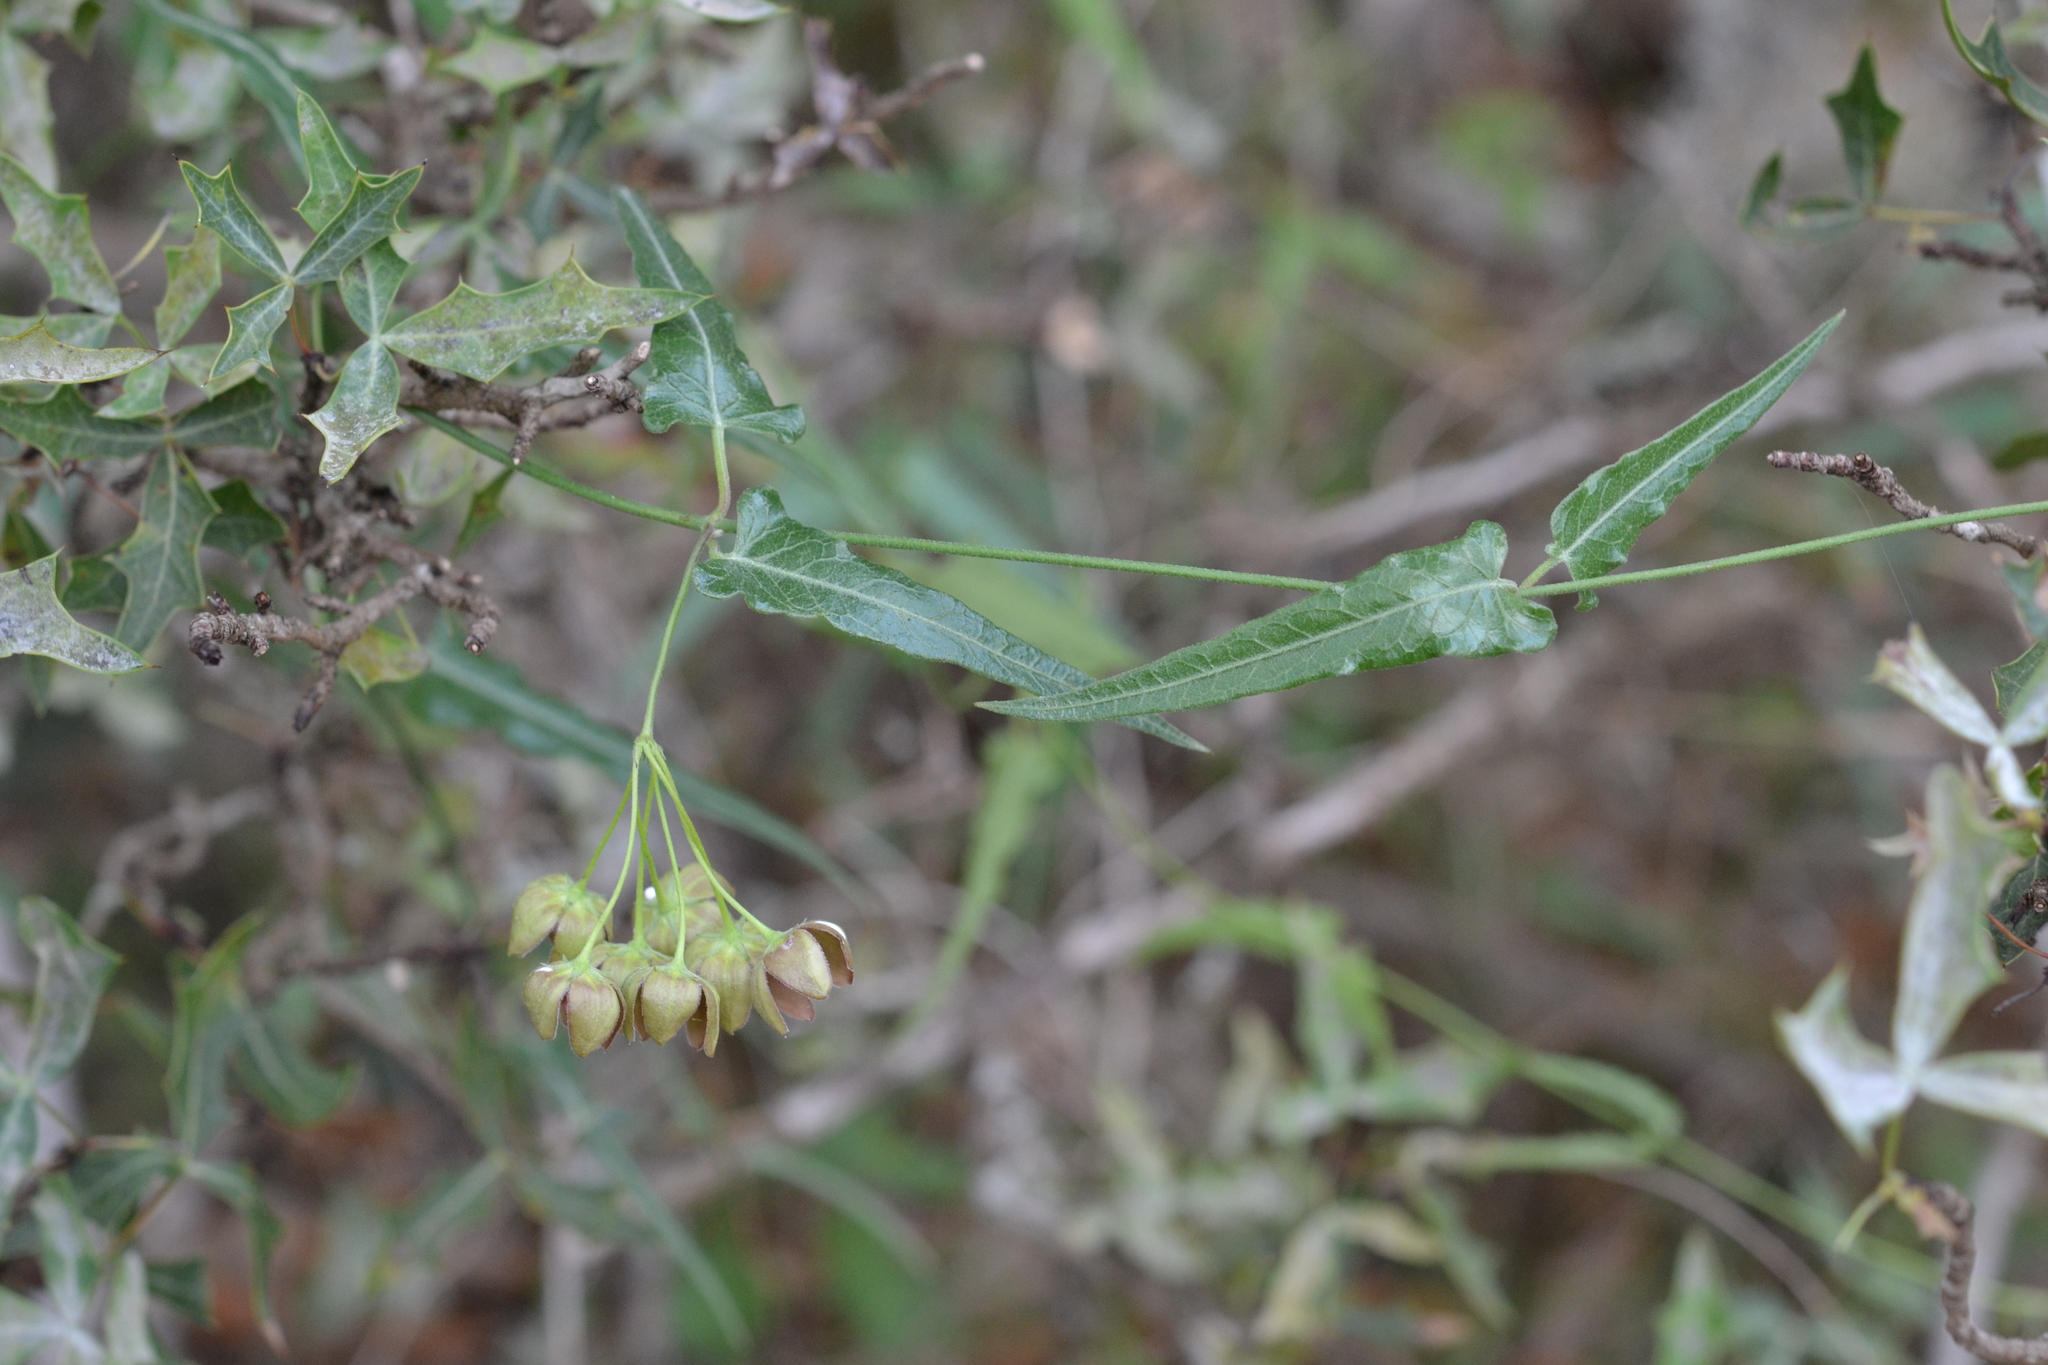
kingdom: Plantae
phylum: Tracheophyta
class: Magnoliopsida
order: Gentianales
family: Apocynaceae
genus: Funastrum
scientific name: Funastrum crispum
